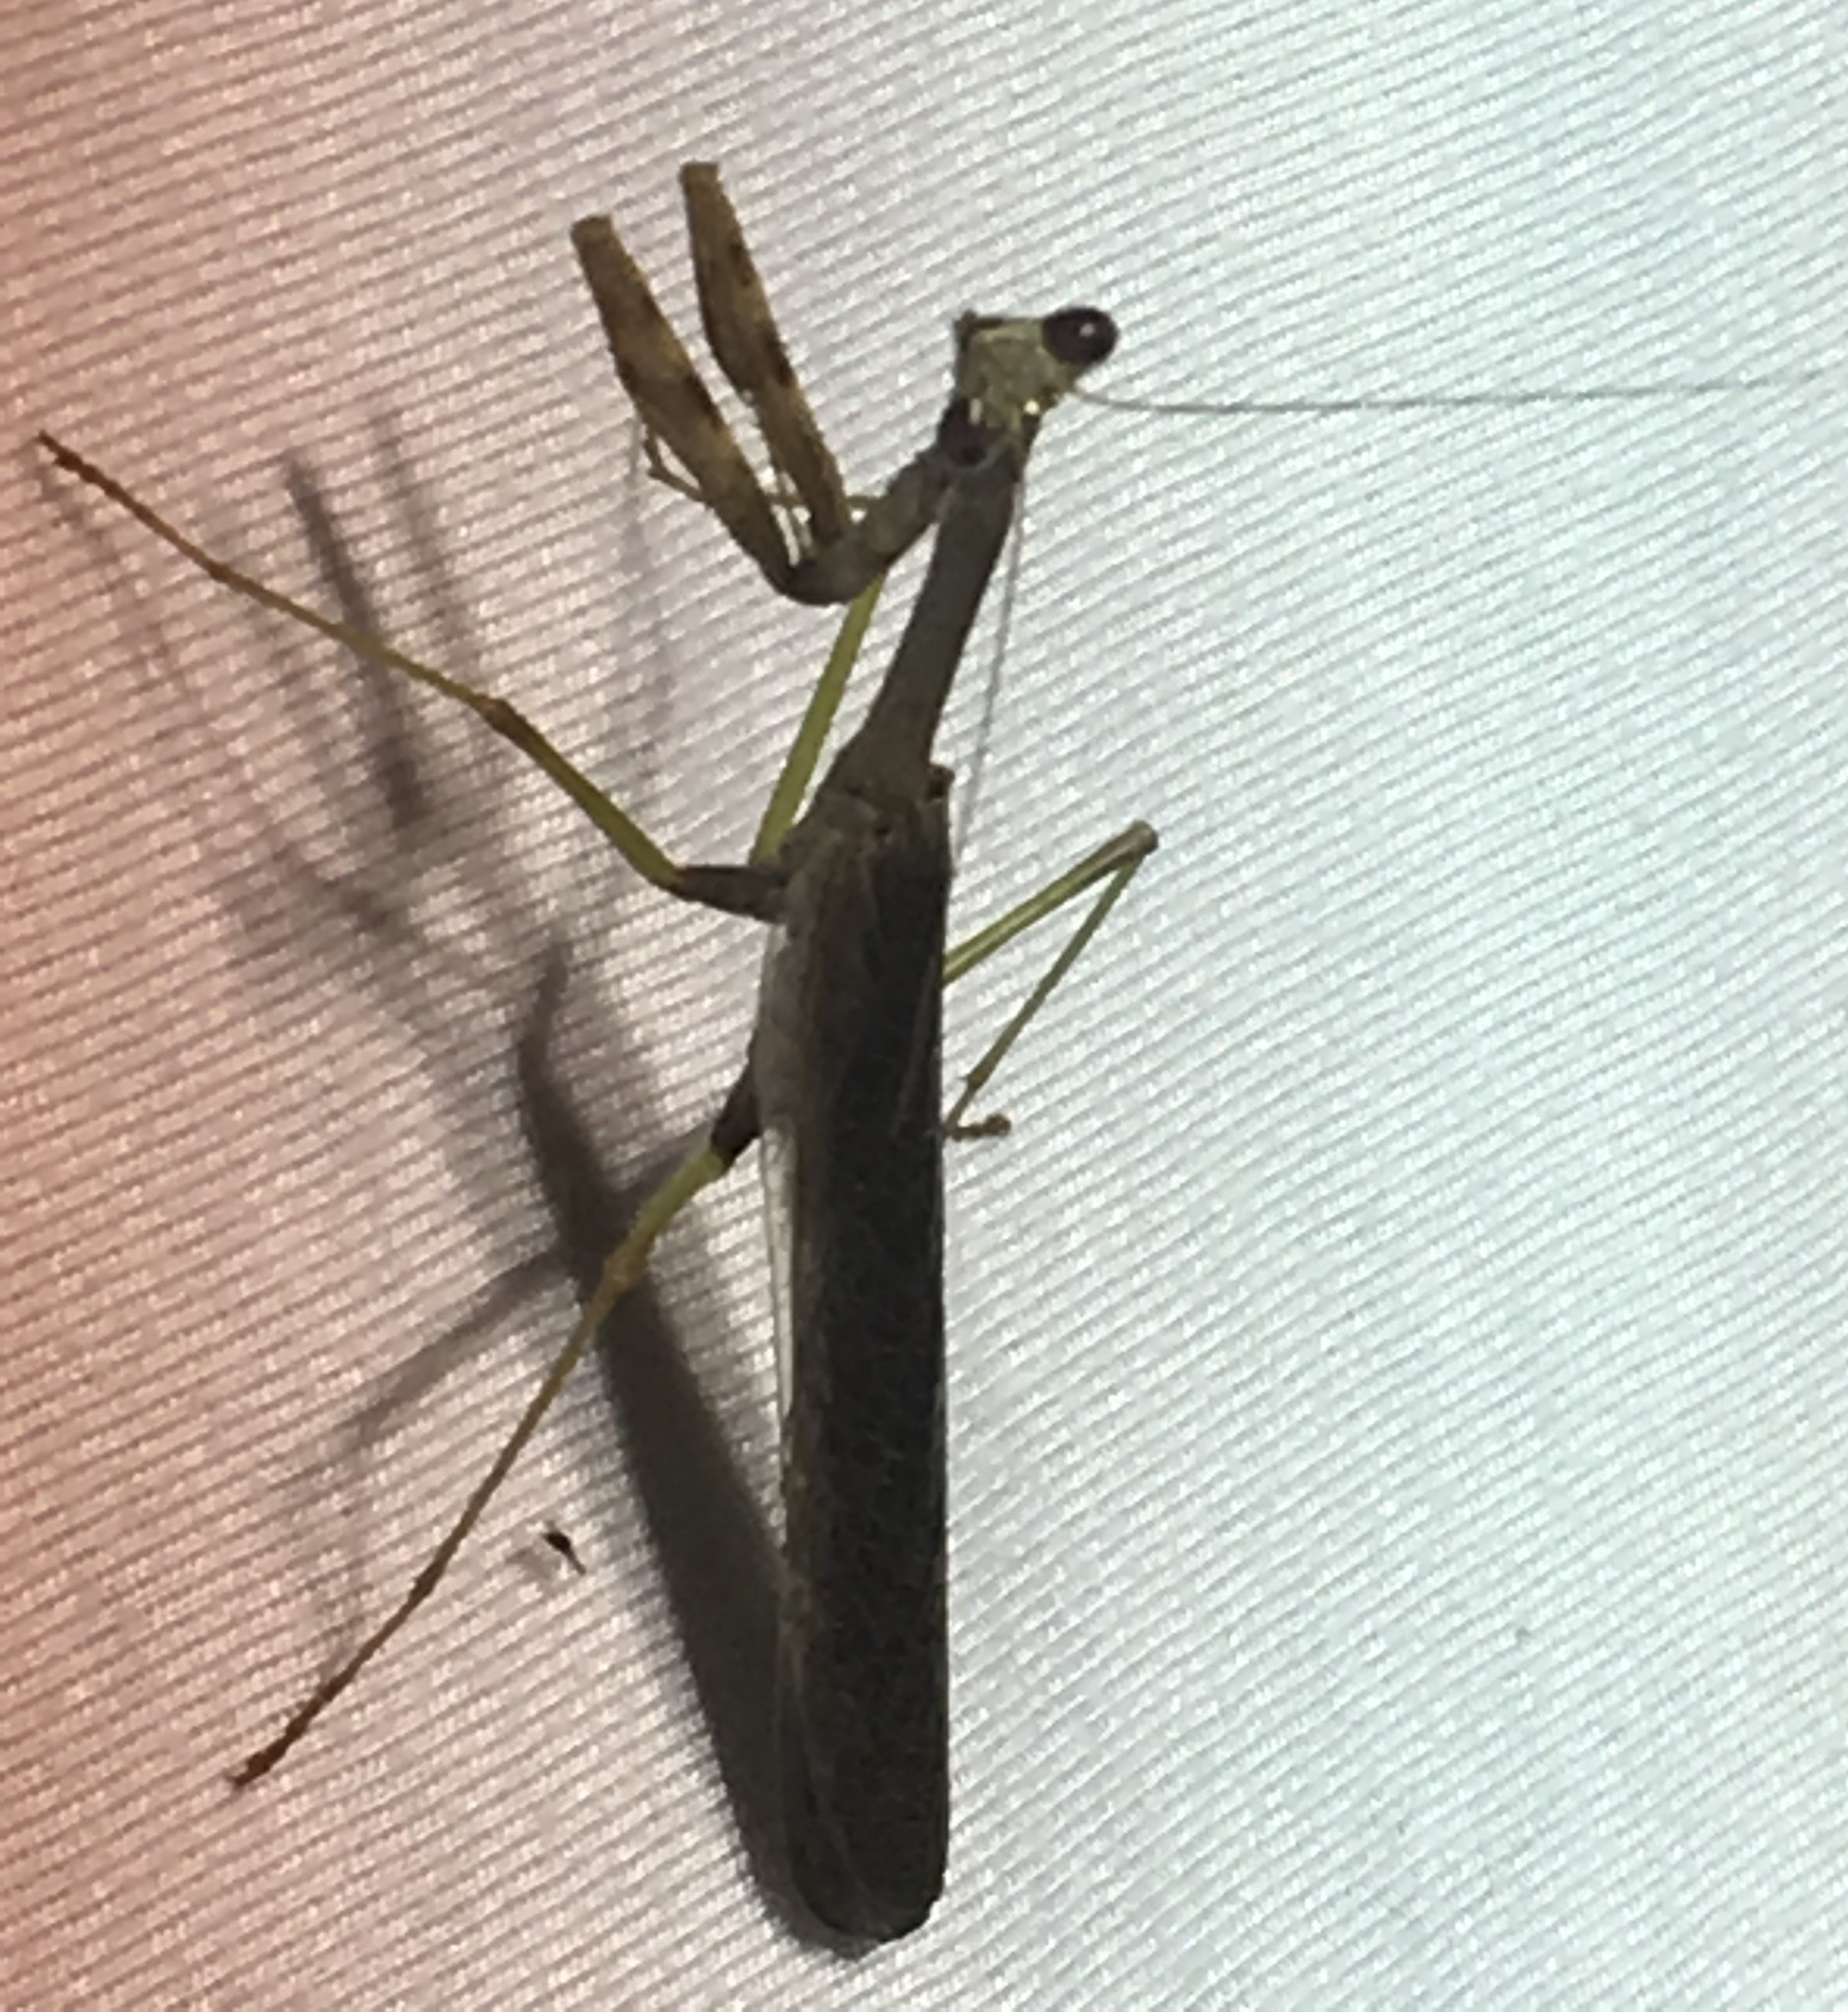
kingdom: Animalia
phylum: Arthropoda
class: Insecta
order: Mantodea
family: Mantidae
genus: Stagmomantis
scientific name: Stagmomantis carolina
